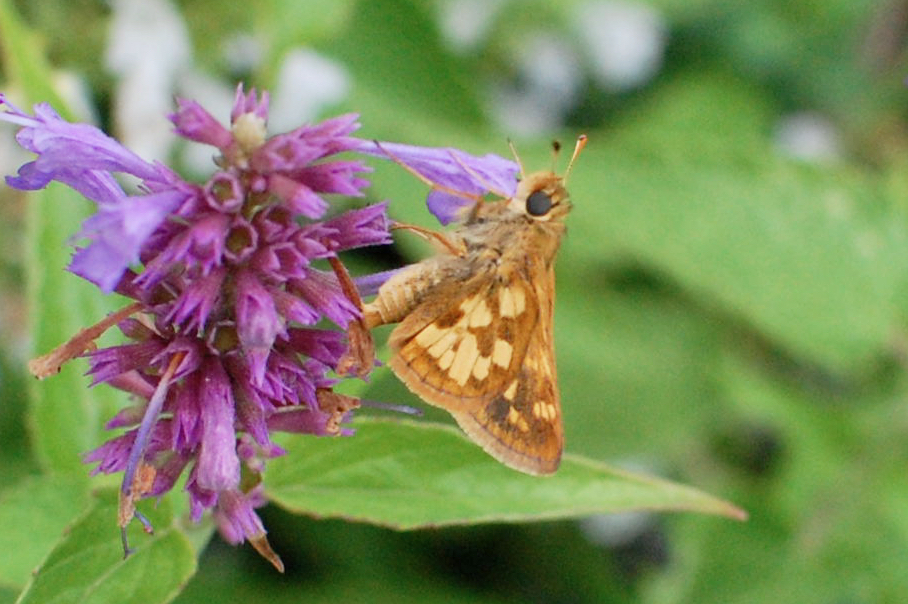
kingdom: Animalia
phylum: Arthropoda
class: Insecta
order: Lepidoptera
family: Hesperiidae
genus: Polites
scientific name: Polites coras
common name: Peck's skipper
